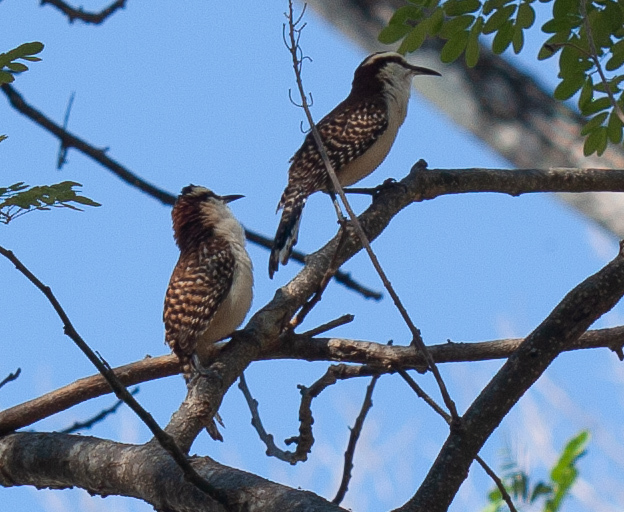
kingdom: Animalia
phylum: Chordata
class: Aves
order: Passeriformes
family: Troglodytidae
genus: Campylorhynchus
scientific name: Campylorhynchus rufinucha
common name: Rufous-naped wren
